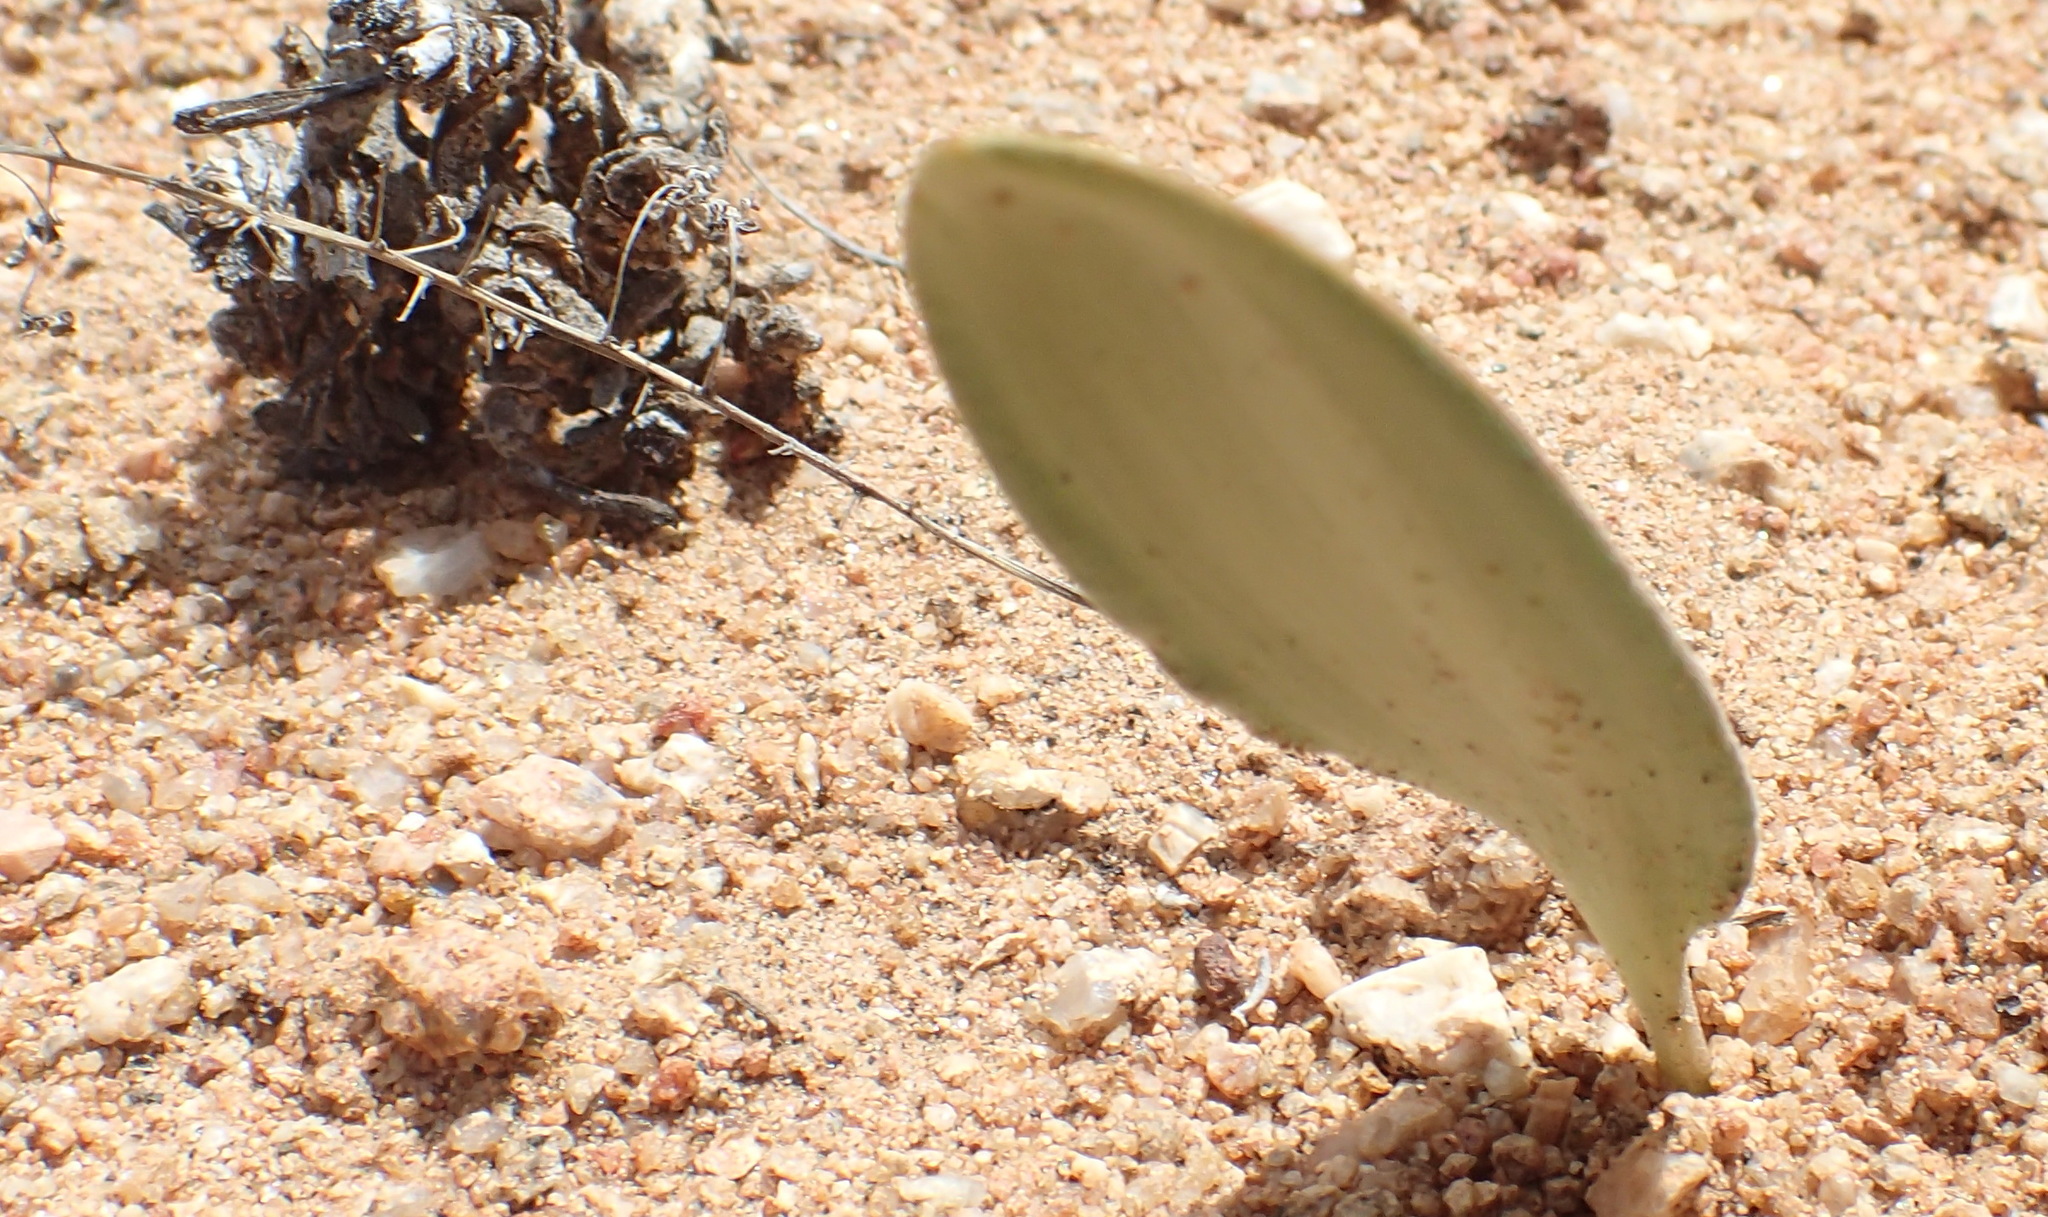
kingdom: Plantae
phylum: Tracheophyta
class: Liliopsida
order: Asparagales
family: Asparagaceae
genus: Eriospermum
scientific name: Eriospermum parvifolium
